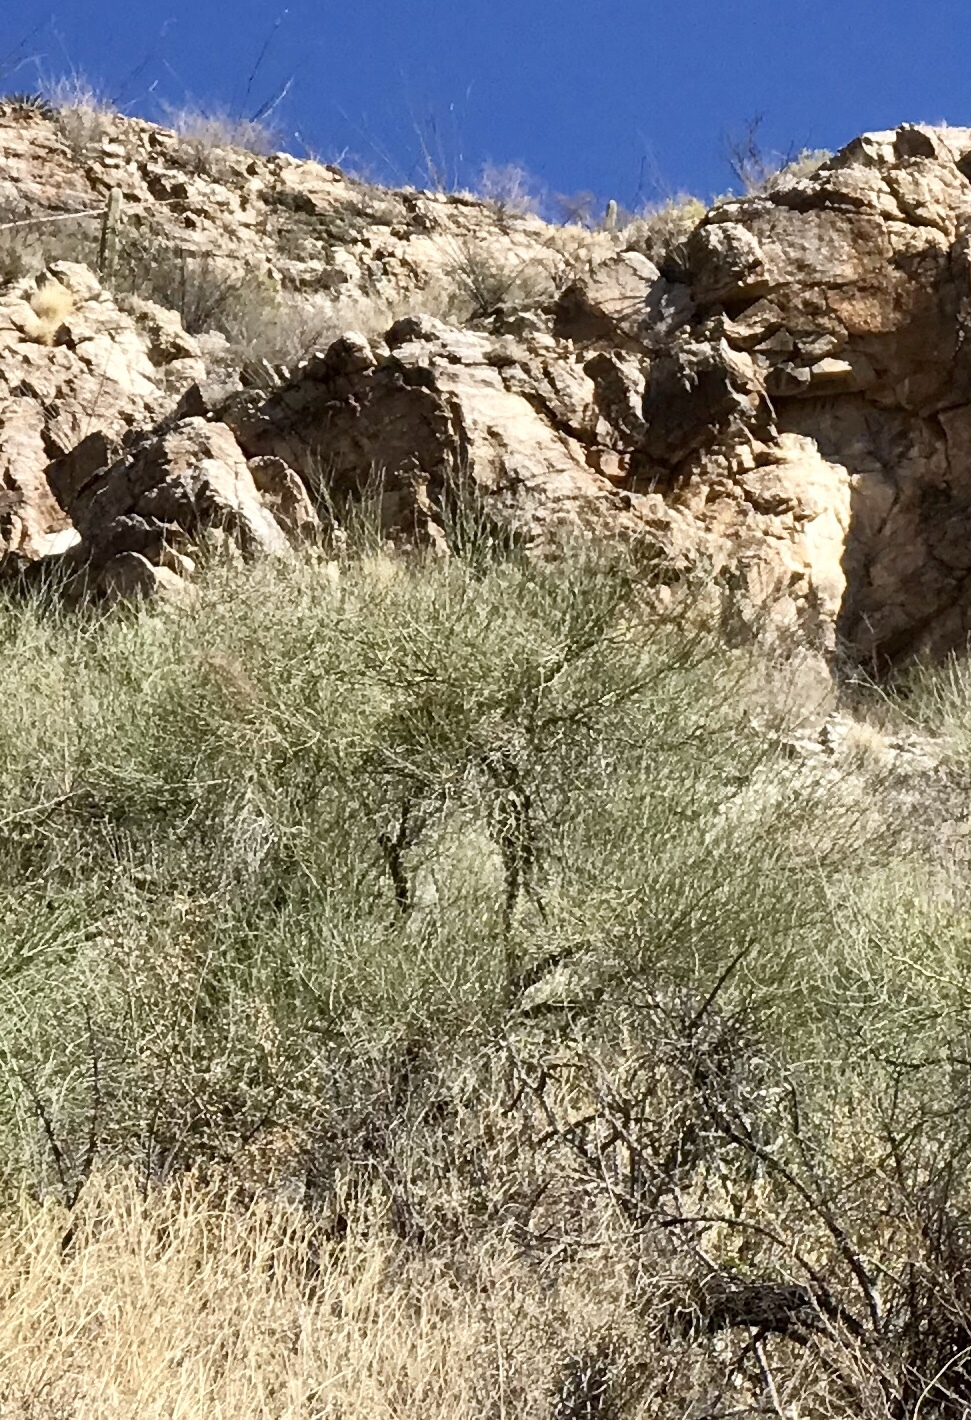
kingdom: Plantae
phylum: Tracheophyta
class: Magnoliopsida
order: Fabales
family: Fabaceae
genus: Parkinsonia
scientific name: Parkinsonia florida
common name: Blue paloverde
